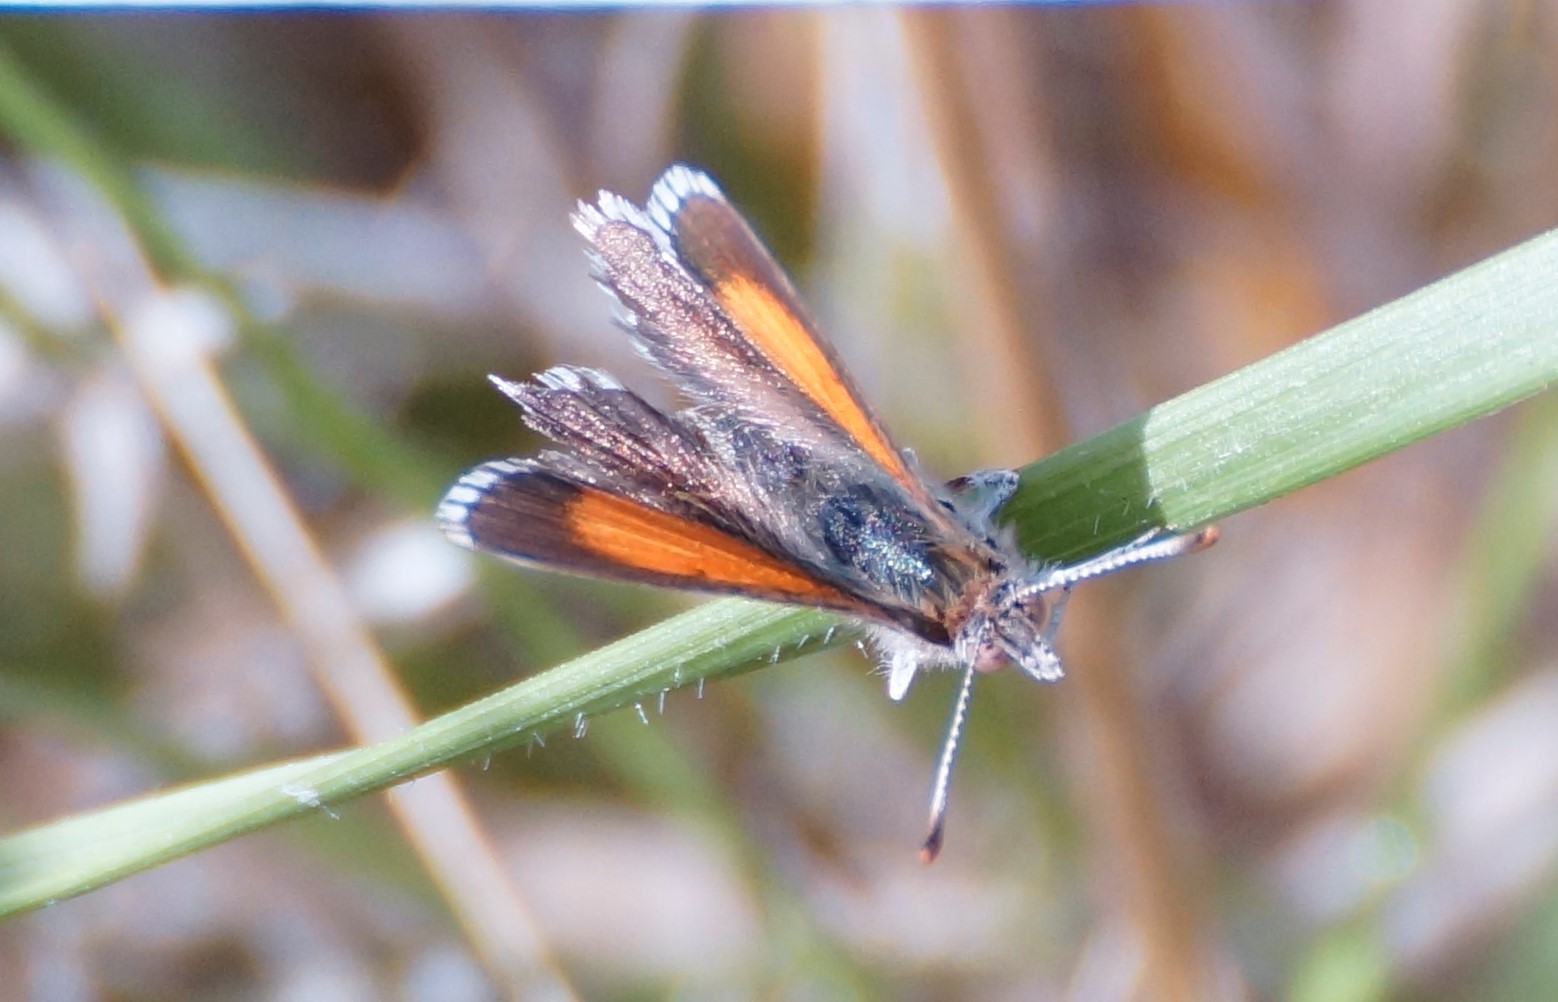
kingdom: Animalia
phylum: Arthropoda
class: Insecta
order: Lepidoptera
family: Lycaenidae
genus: Lucia
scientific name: Lucia limbaria
